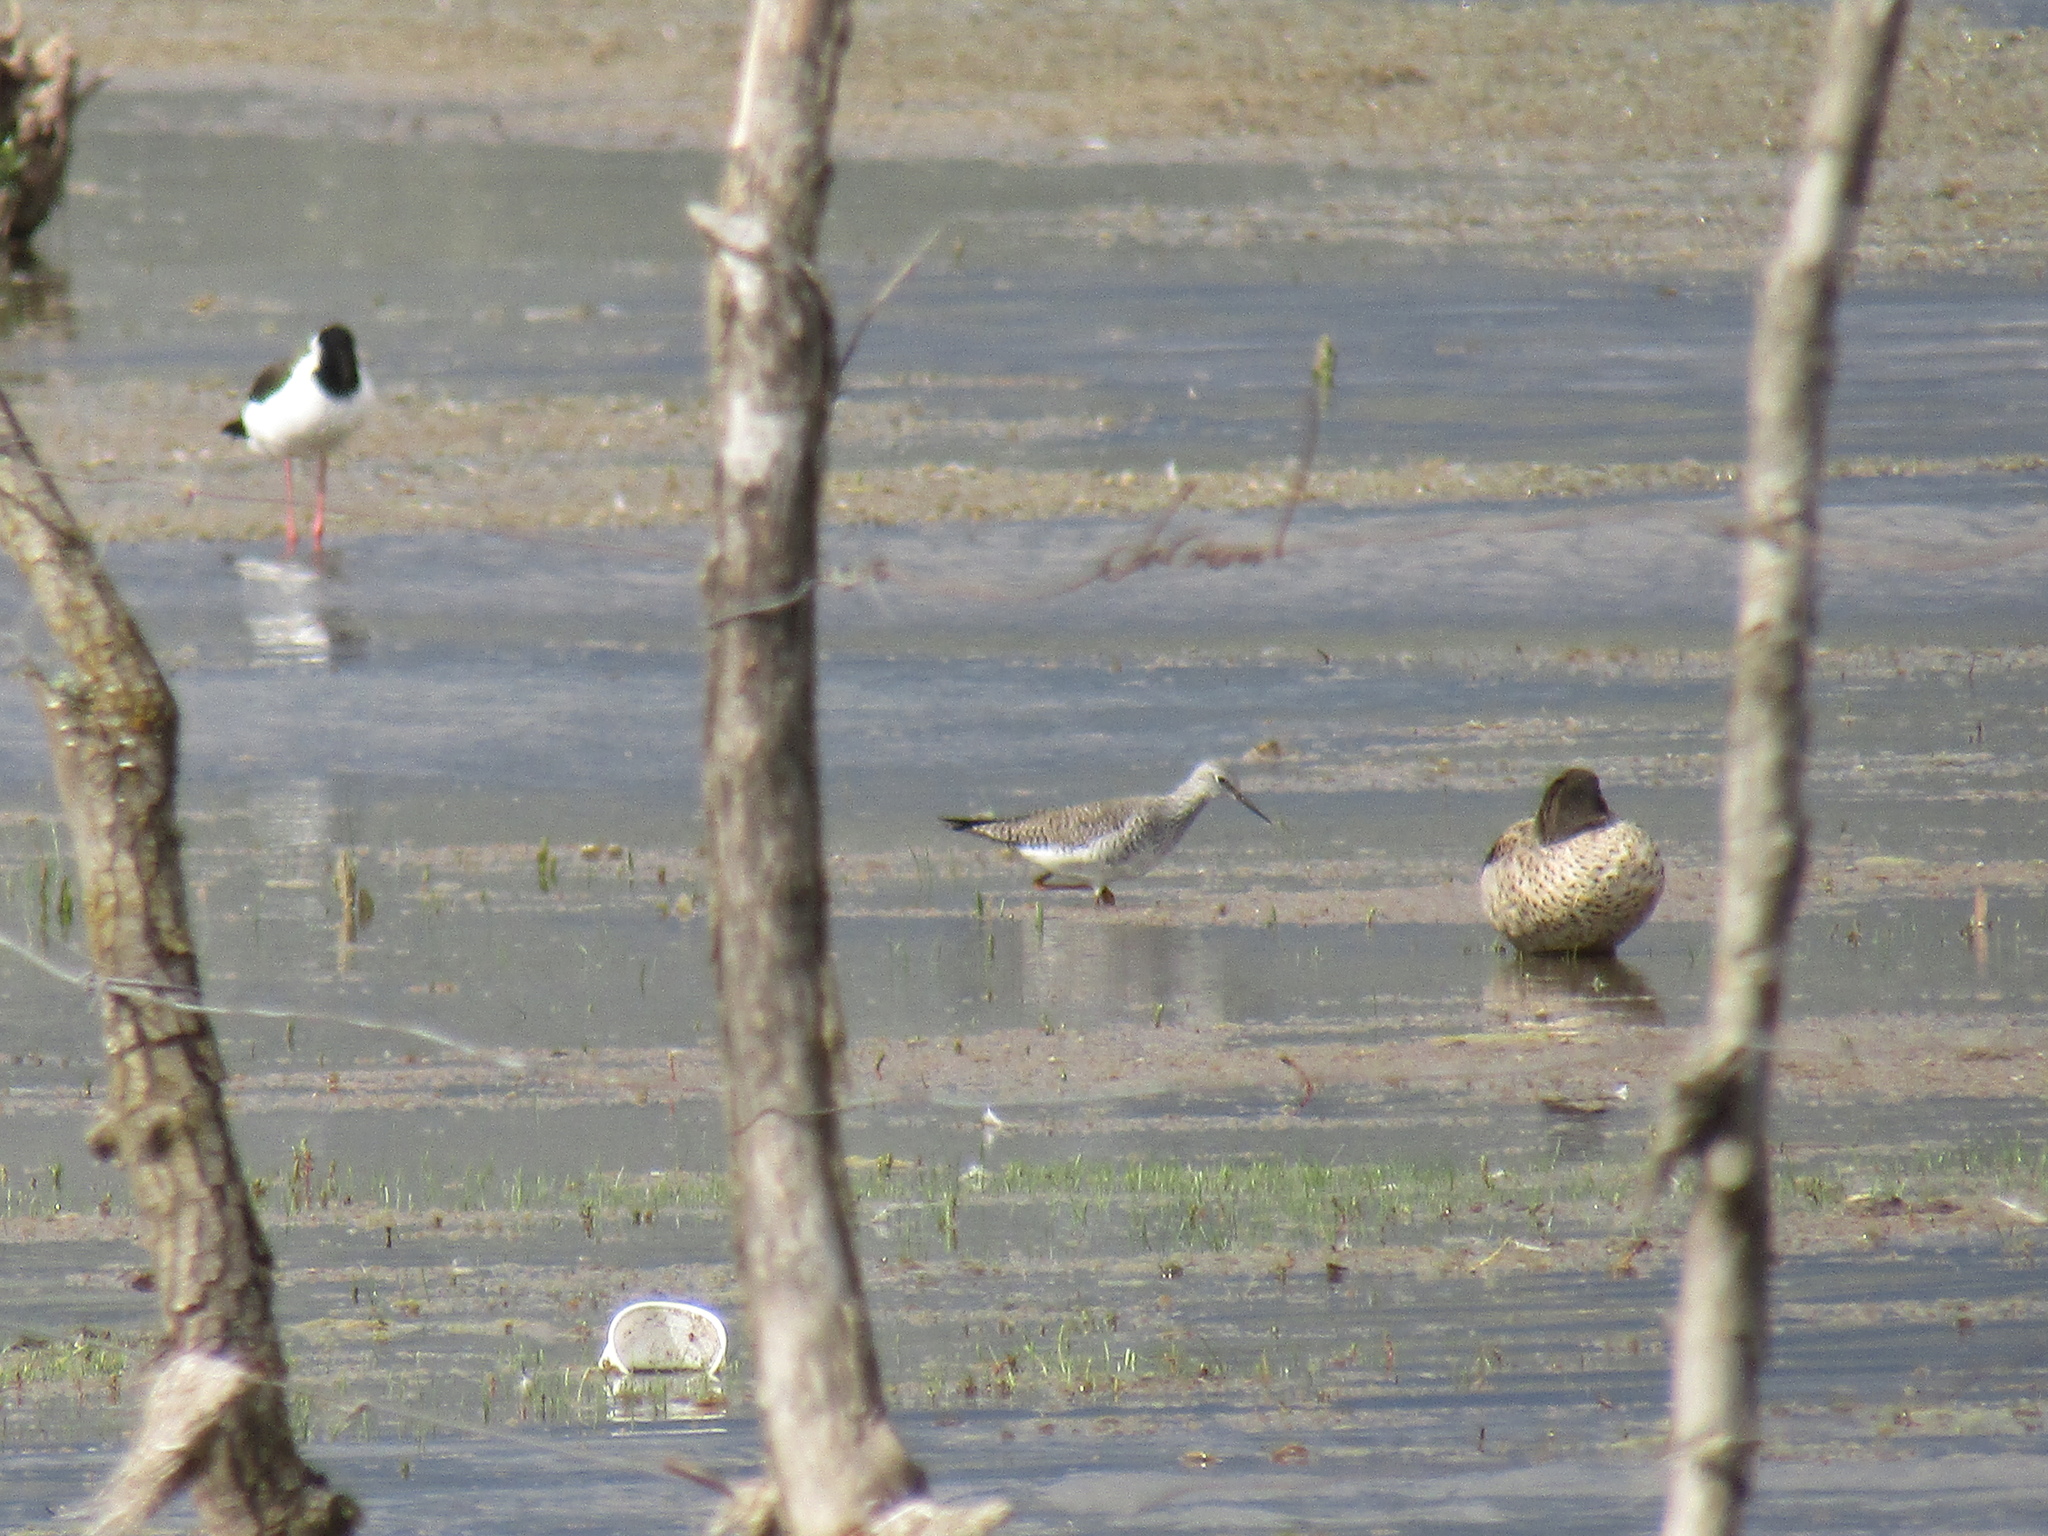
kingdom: Animalia
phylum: Chordata
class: Aves
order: Charadriiformes
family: Scolopacidae
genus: Tringa
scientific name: Tringa melanoleuca
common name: Greater yellowlegs
